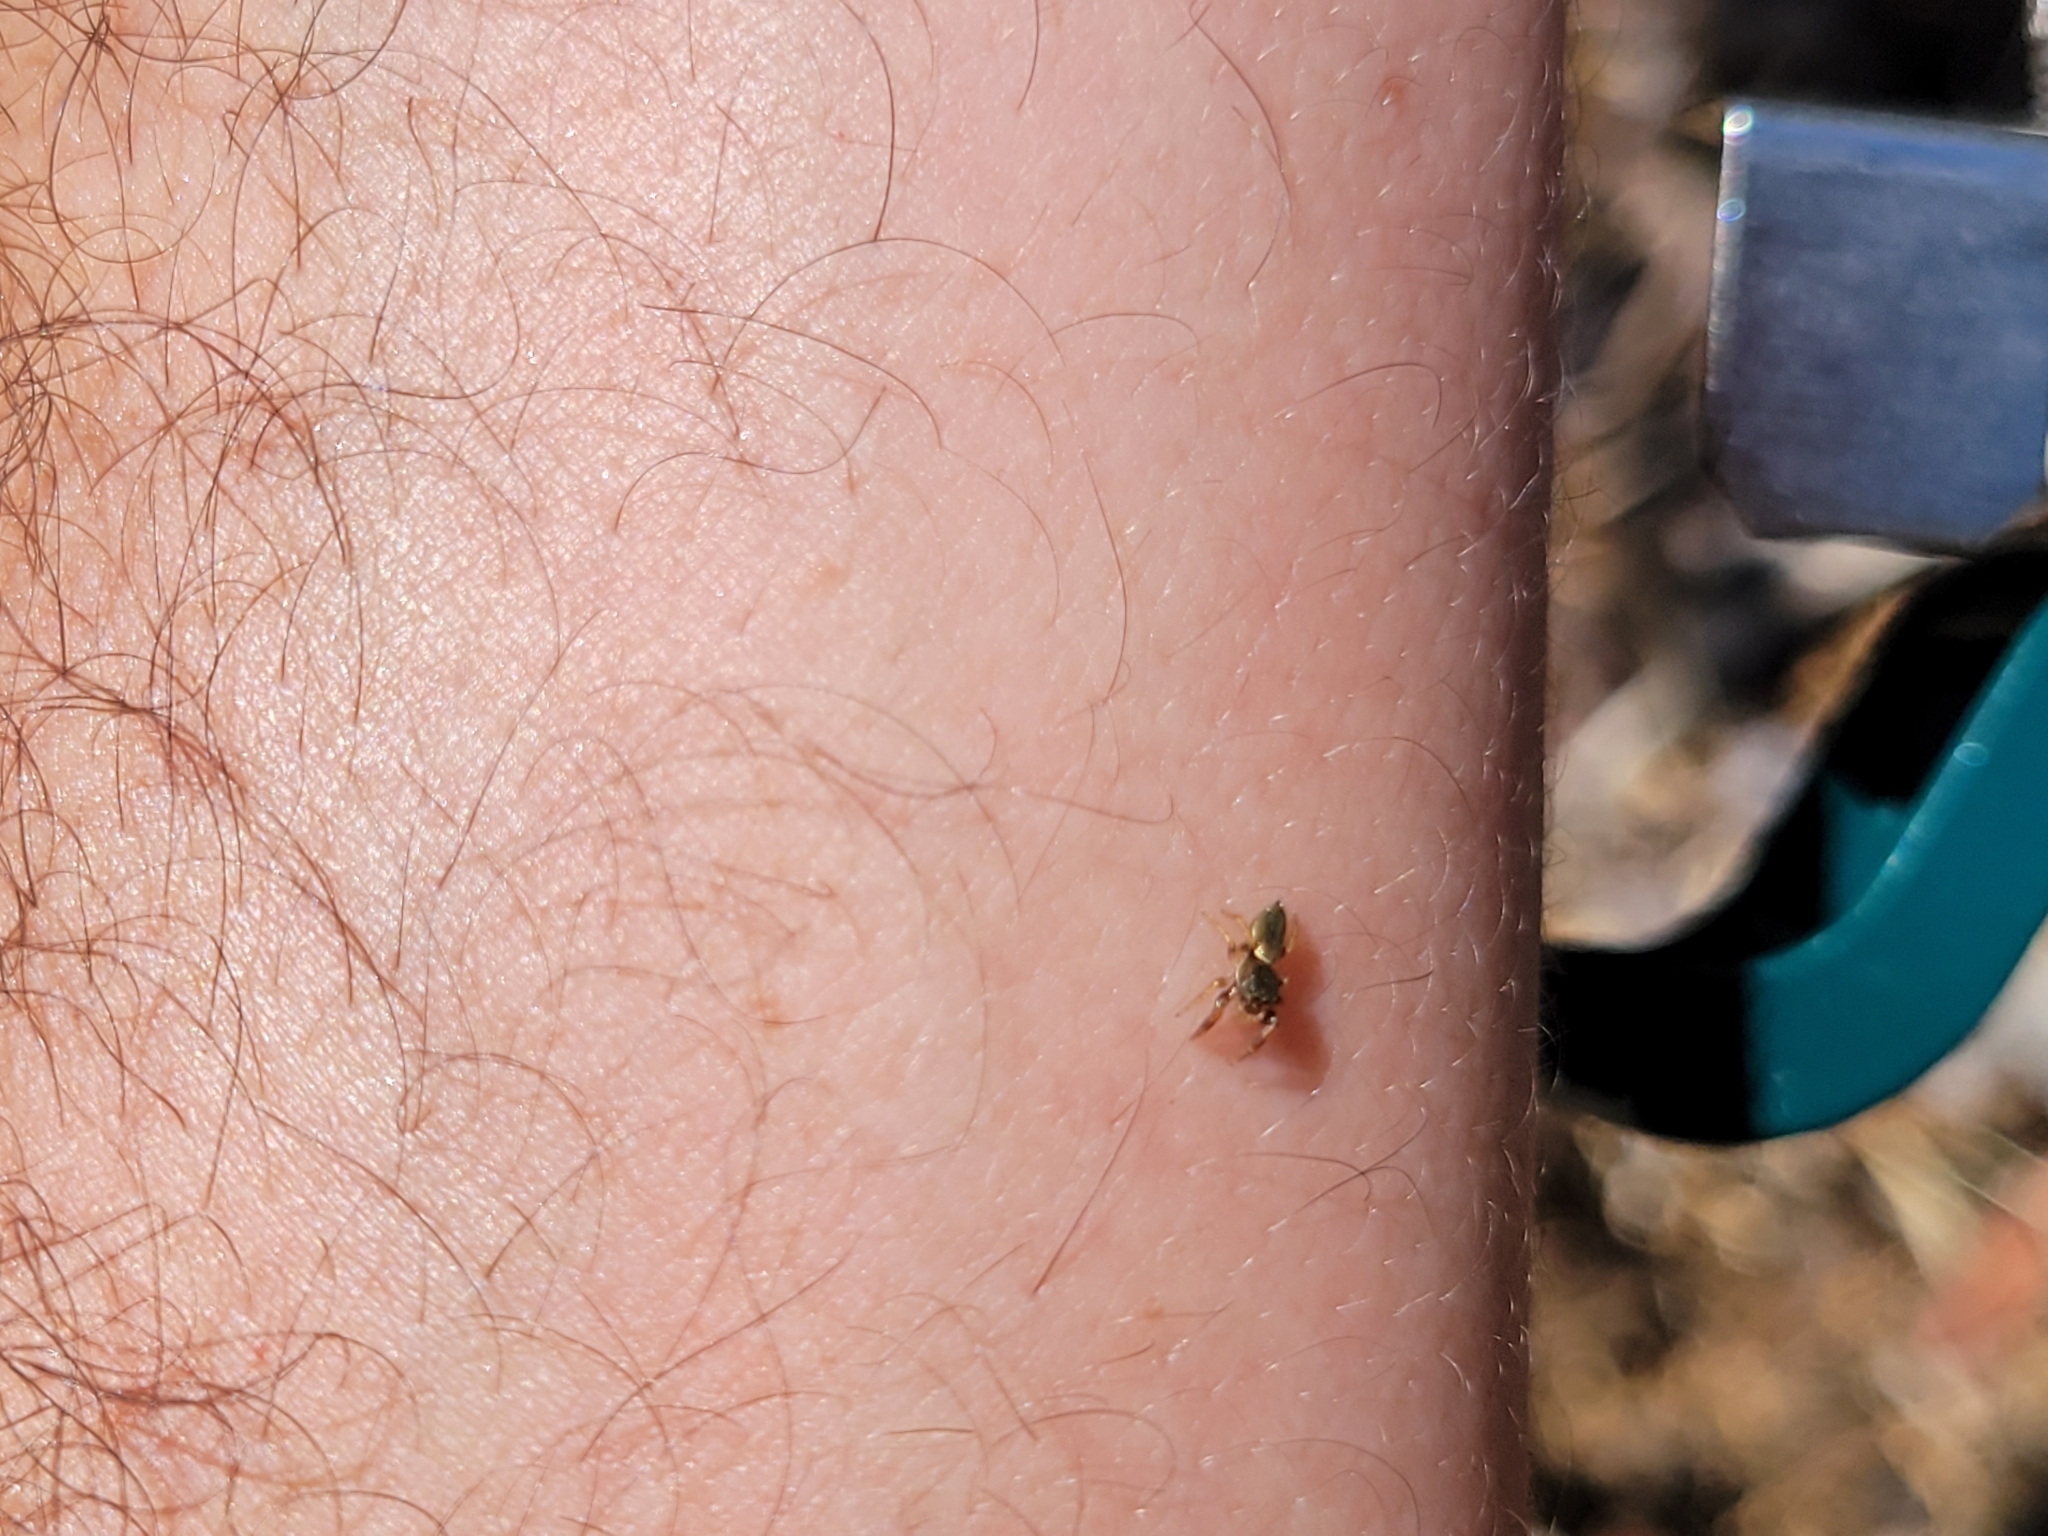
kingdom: Animalia
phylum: Arthropoda
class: Arachnida
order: Araneae
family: Salticidae
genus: Sassacus
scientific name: Sassacus vitis
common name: Jumping spiders
